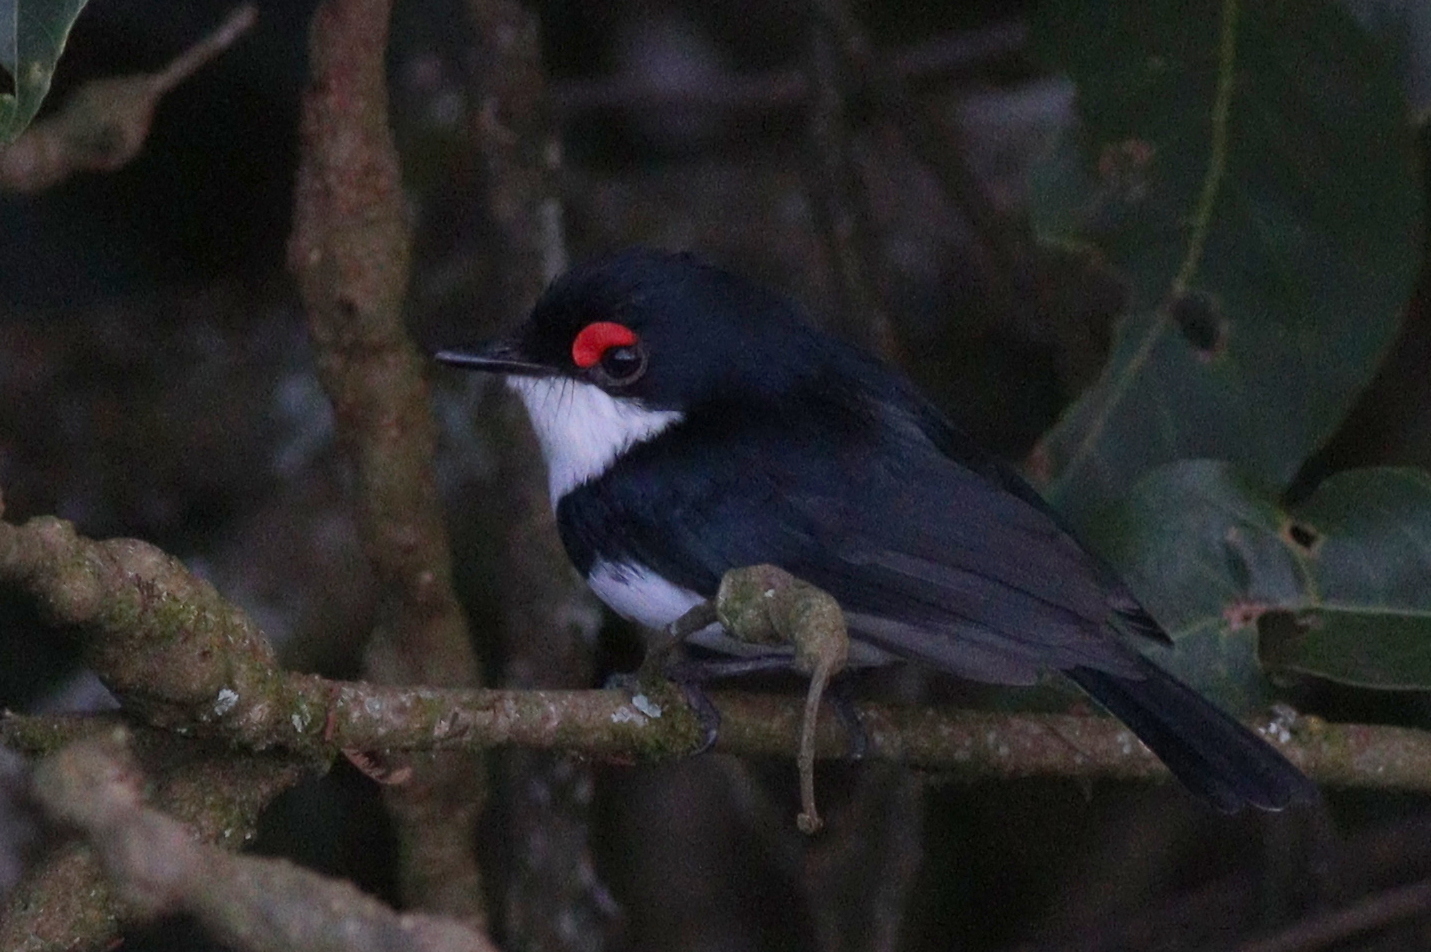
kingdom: Animalia
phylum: Chordata
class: Aves
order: Passeriformes
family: Platysteiridae
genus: Platysteira
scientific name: Platysteira peltata
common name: Black-throated wattle-eye
